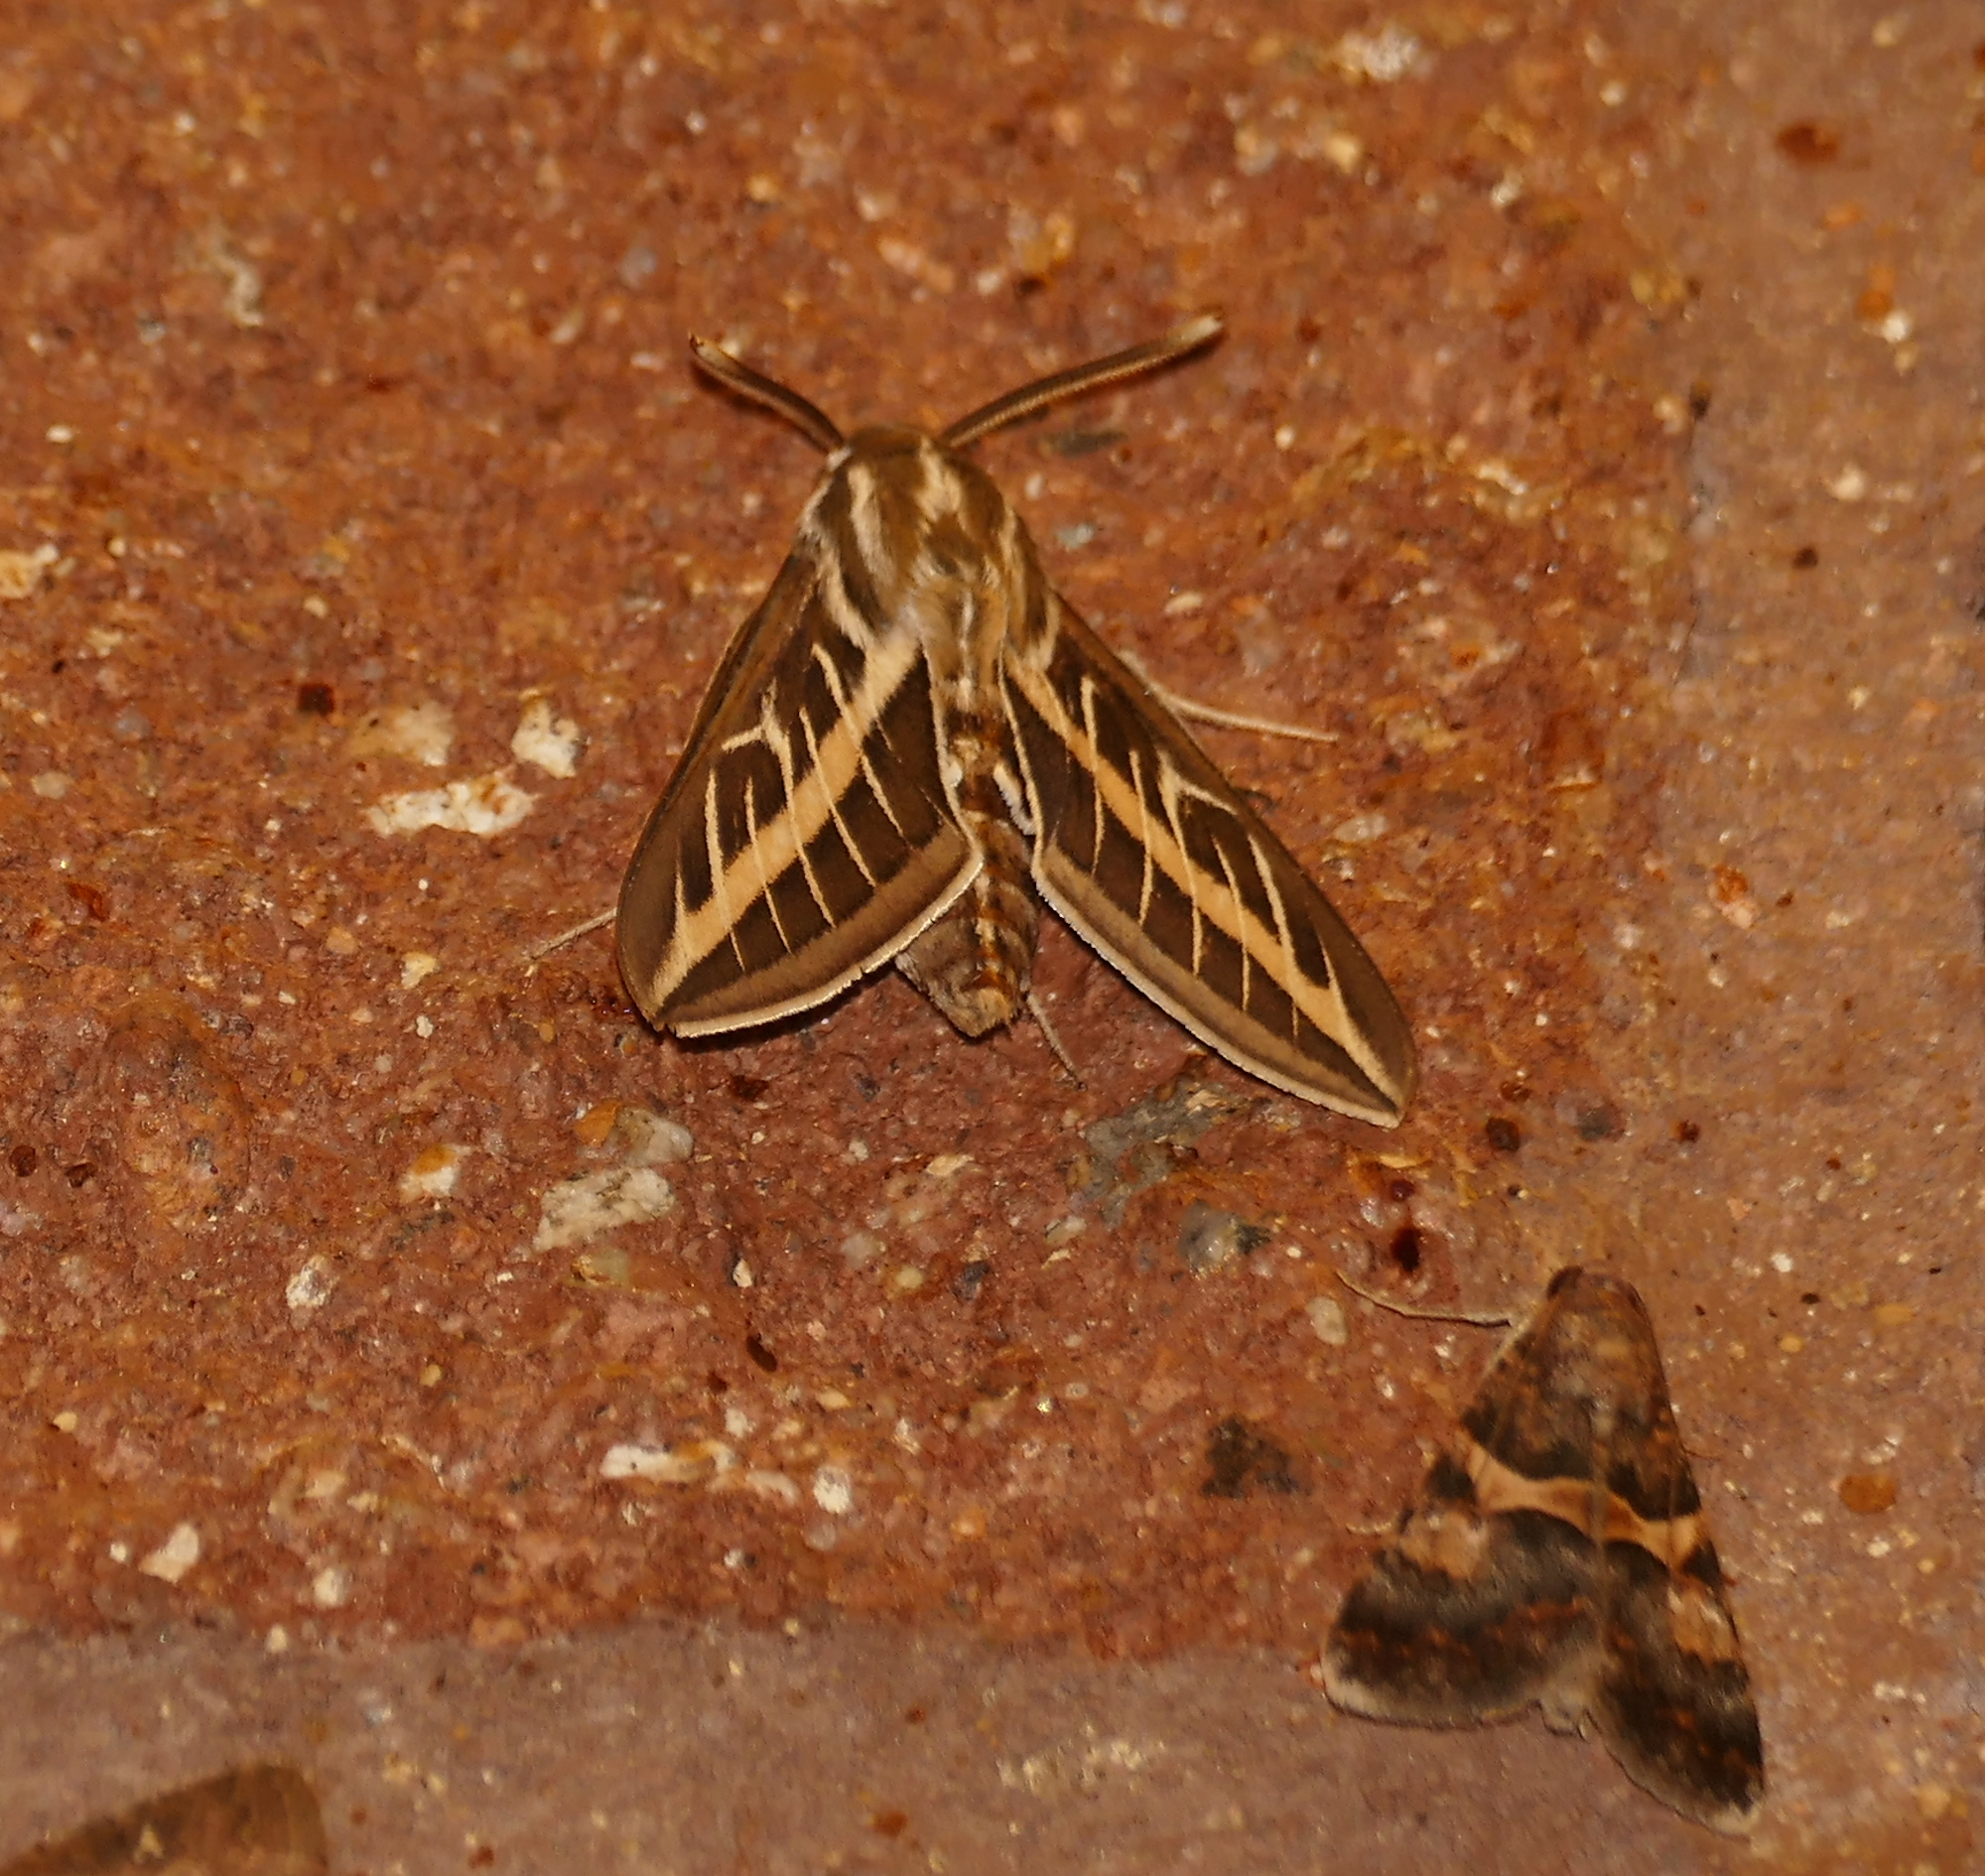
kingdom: Animalia
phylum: Arthropoda
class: Insecta
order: Lepidoptera
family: Sphingidae
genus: Hyles
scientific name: Hyles lineata
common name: White-lined sphinx
